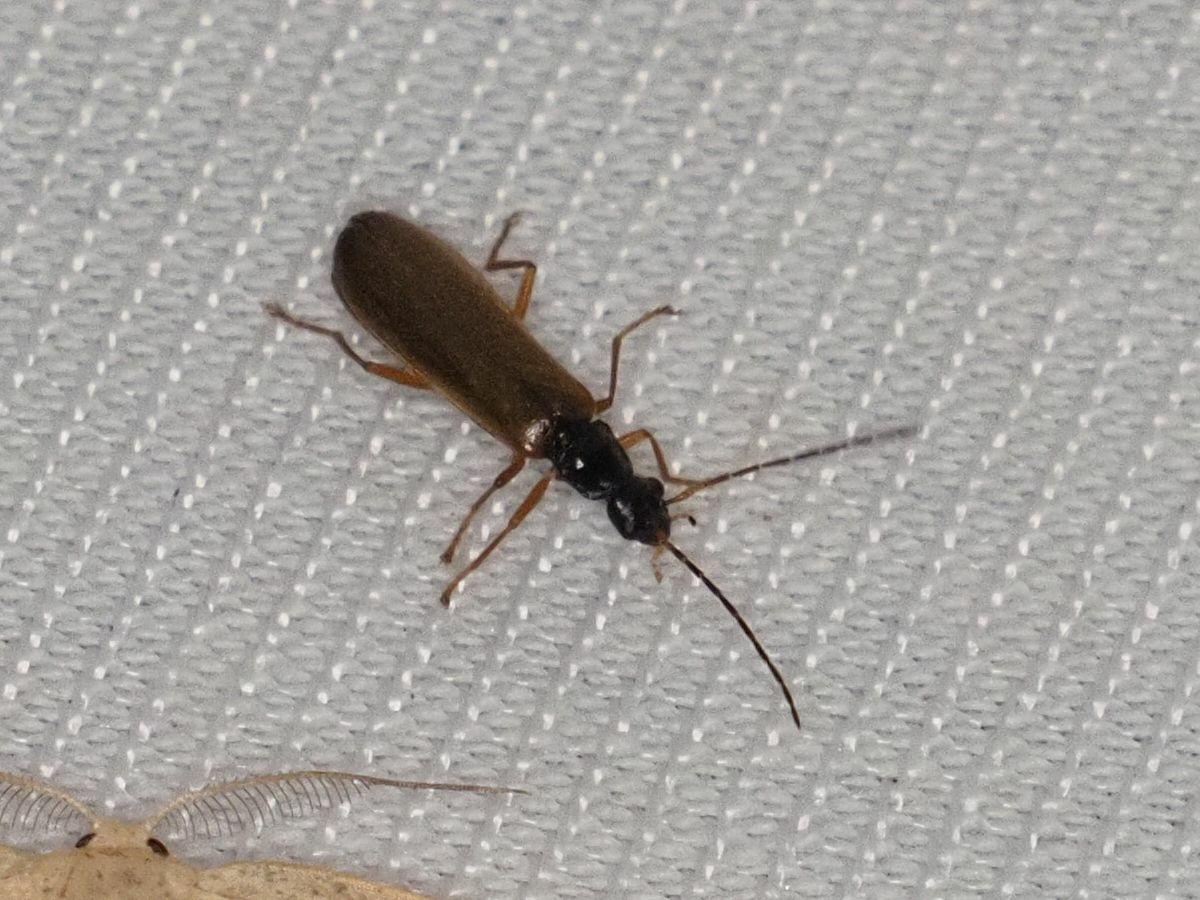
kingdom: Animalia
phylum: Arthropoda
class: Insecta
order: Coleoptera
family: Cantharidae
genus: Rhagonycha
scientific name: Rhagonycha lignosa
